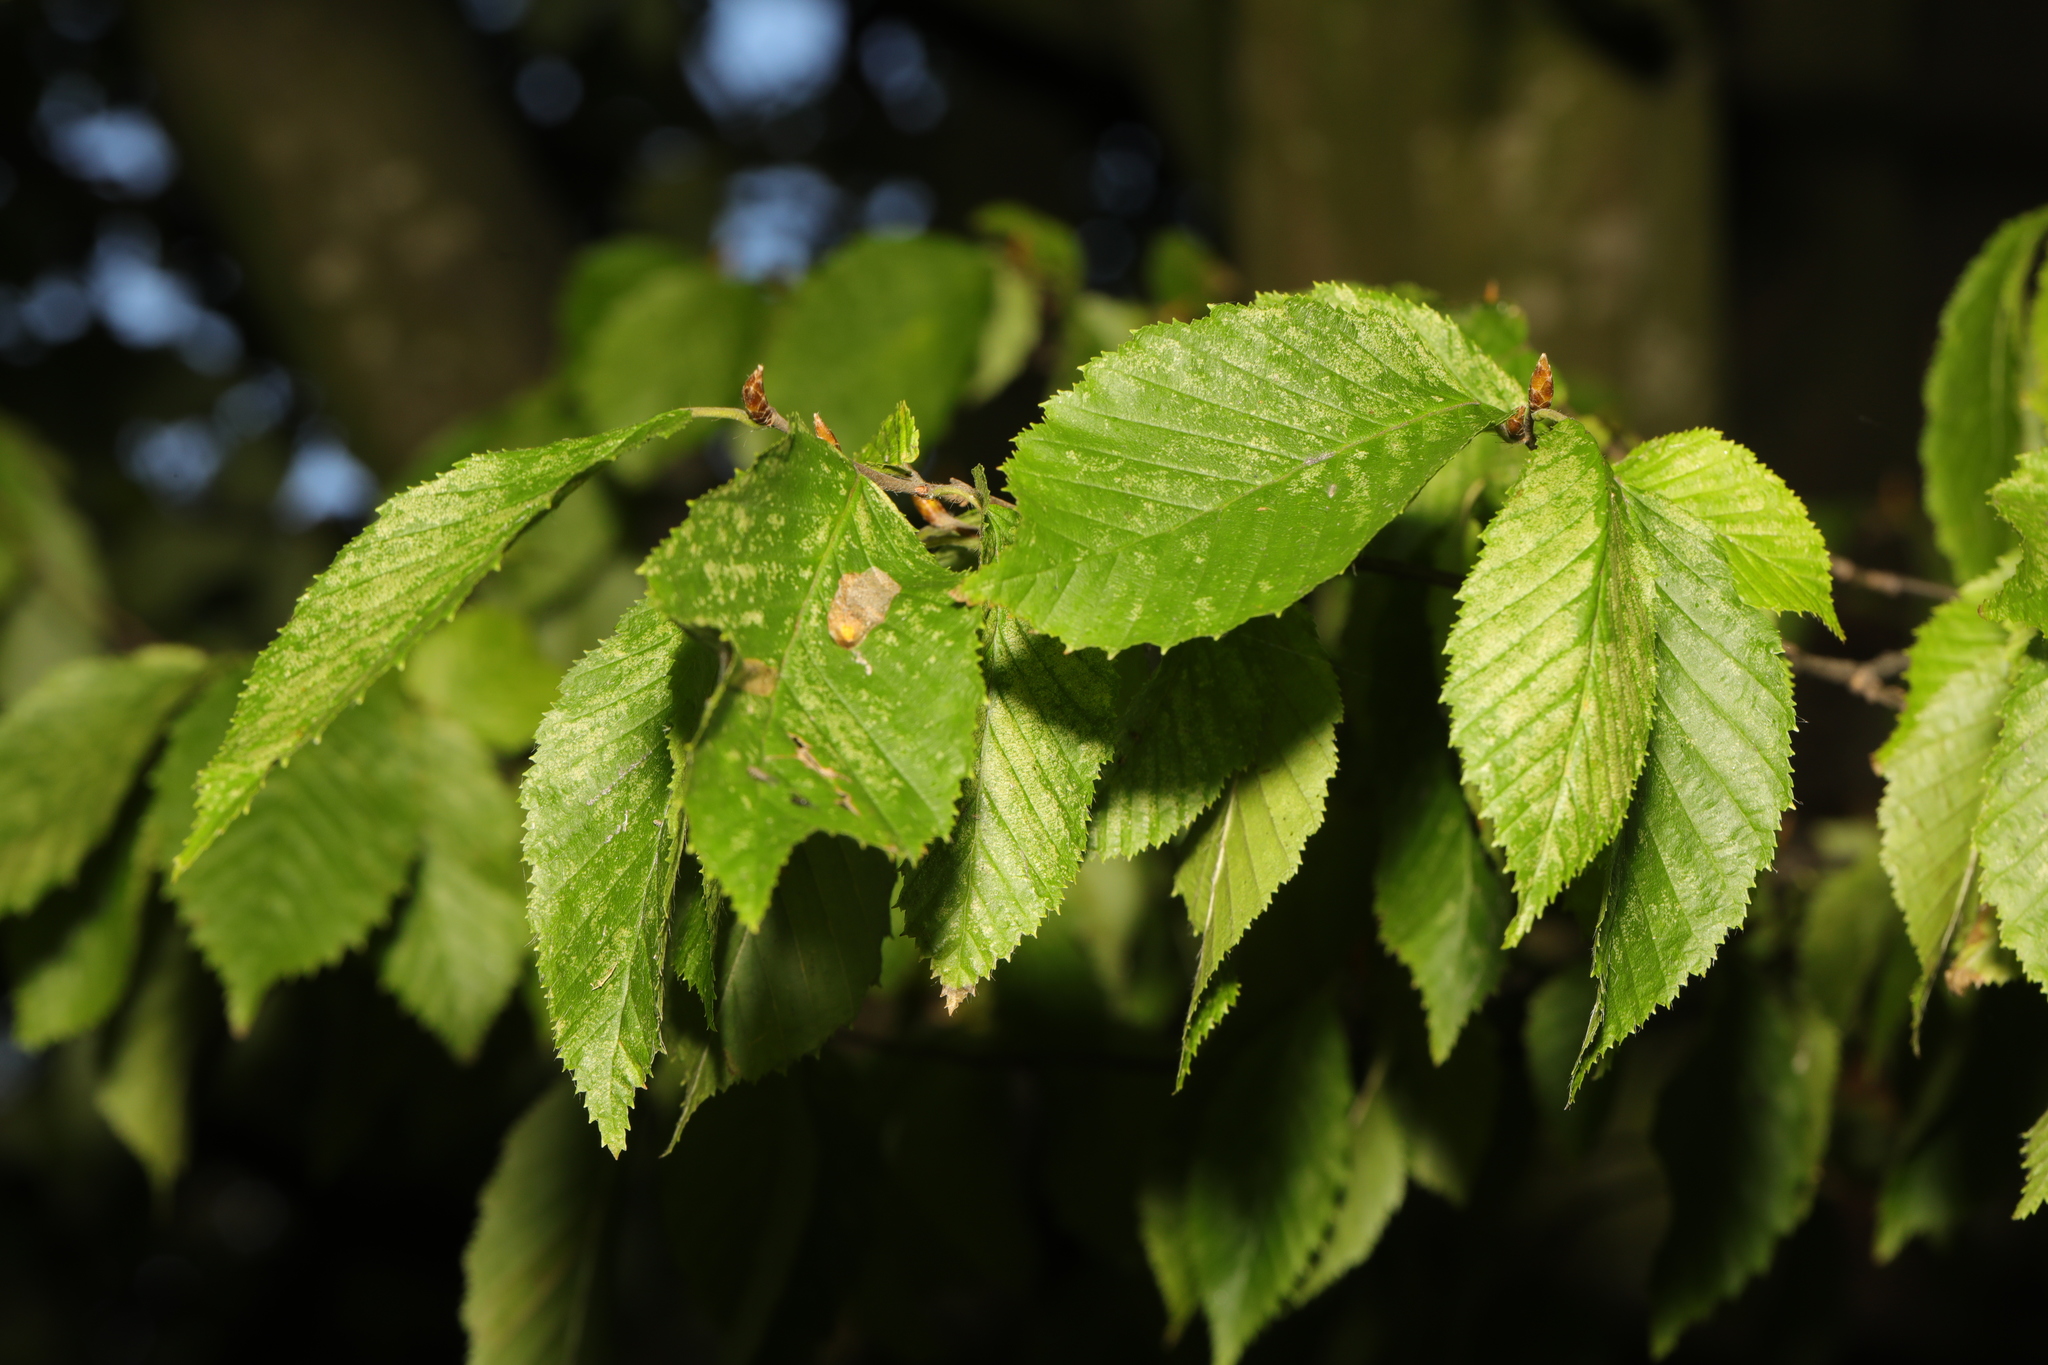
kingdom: Plantae
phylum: Tracheophyta
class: Magnoliopsida
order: Fagales
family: Betulaceae
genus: Carpinus
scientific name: Carpinus betulus
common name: Hornbeam
